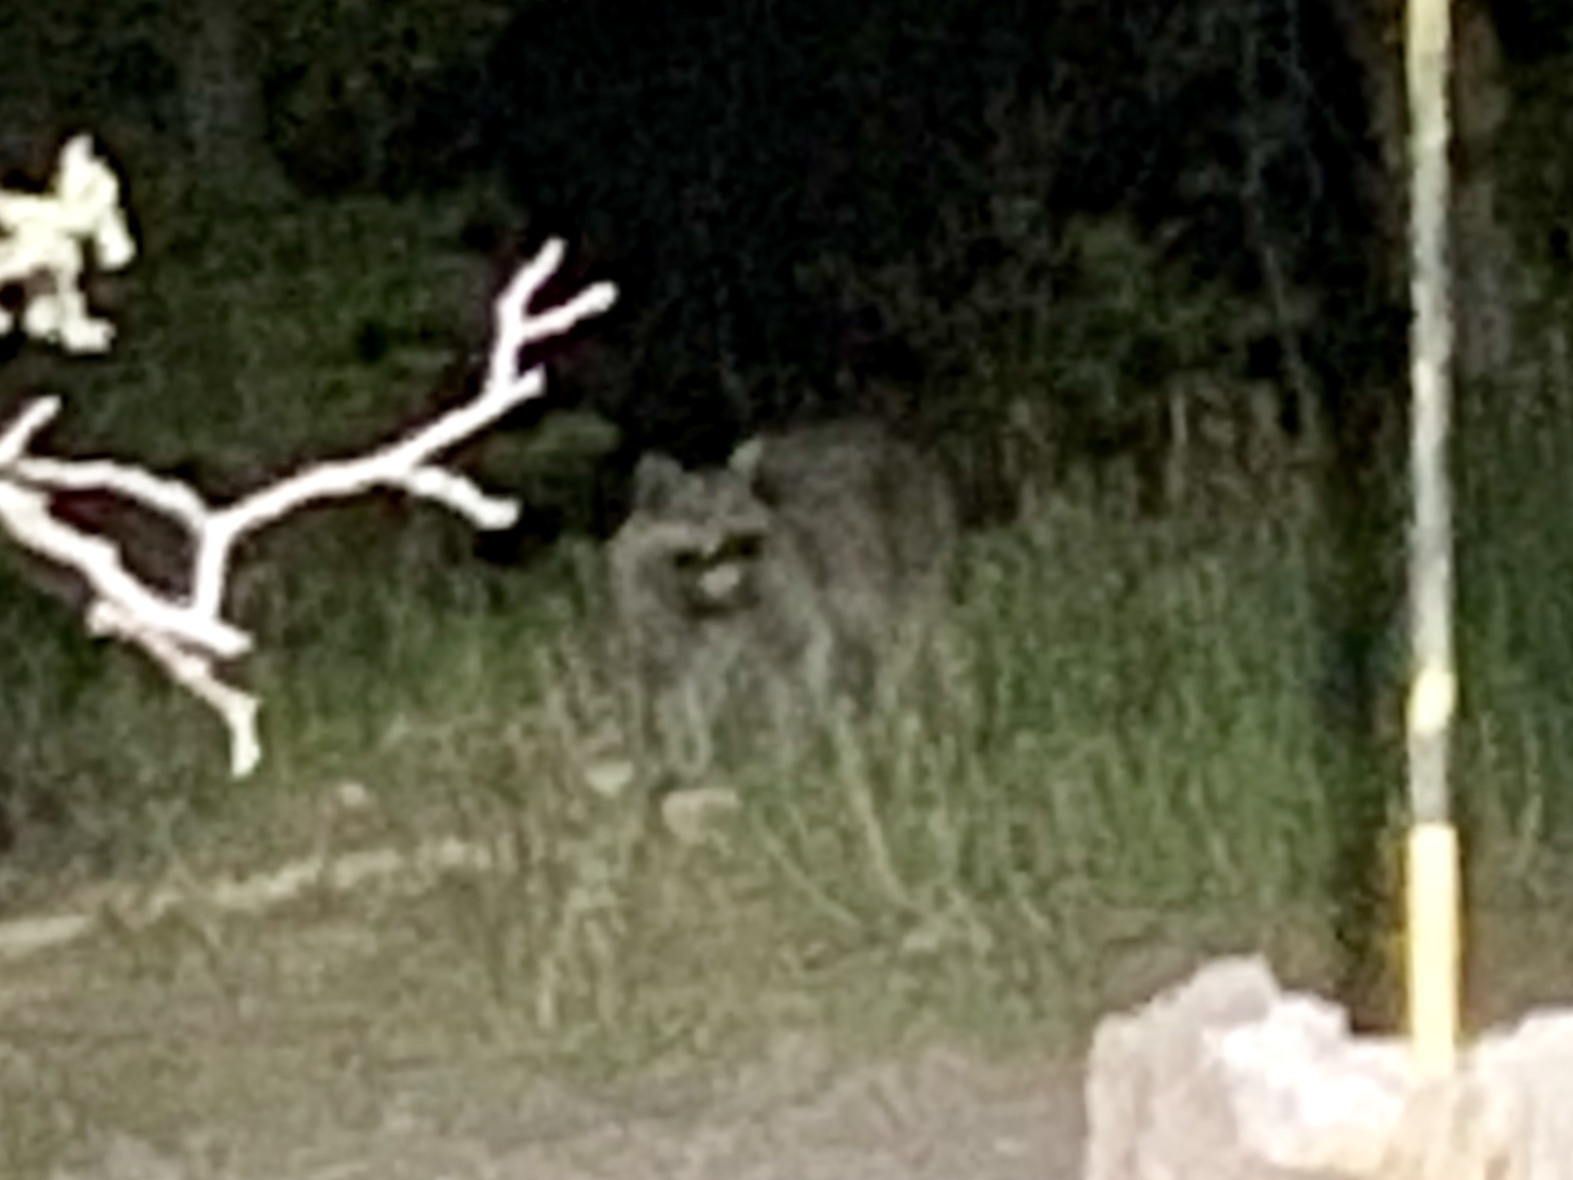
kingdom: Animalia
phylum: Chordata
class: Mammalia
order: Carnivora
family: Procyonidae
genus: Procyon
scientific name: Procyon lotor
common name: Raccoon
